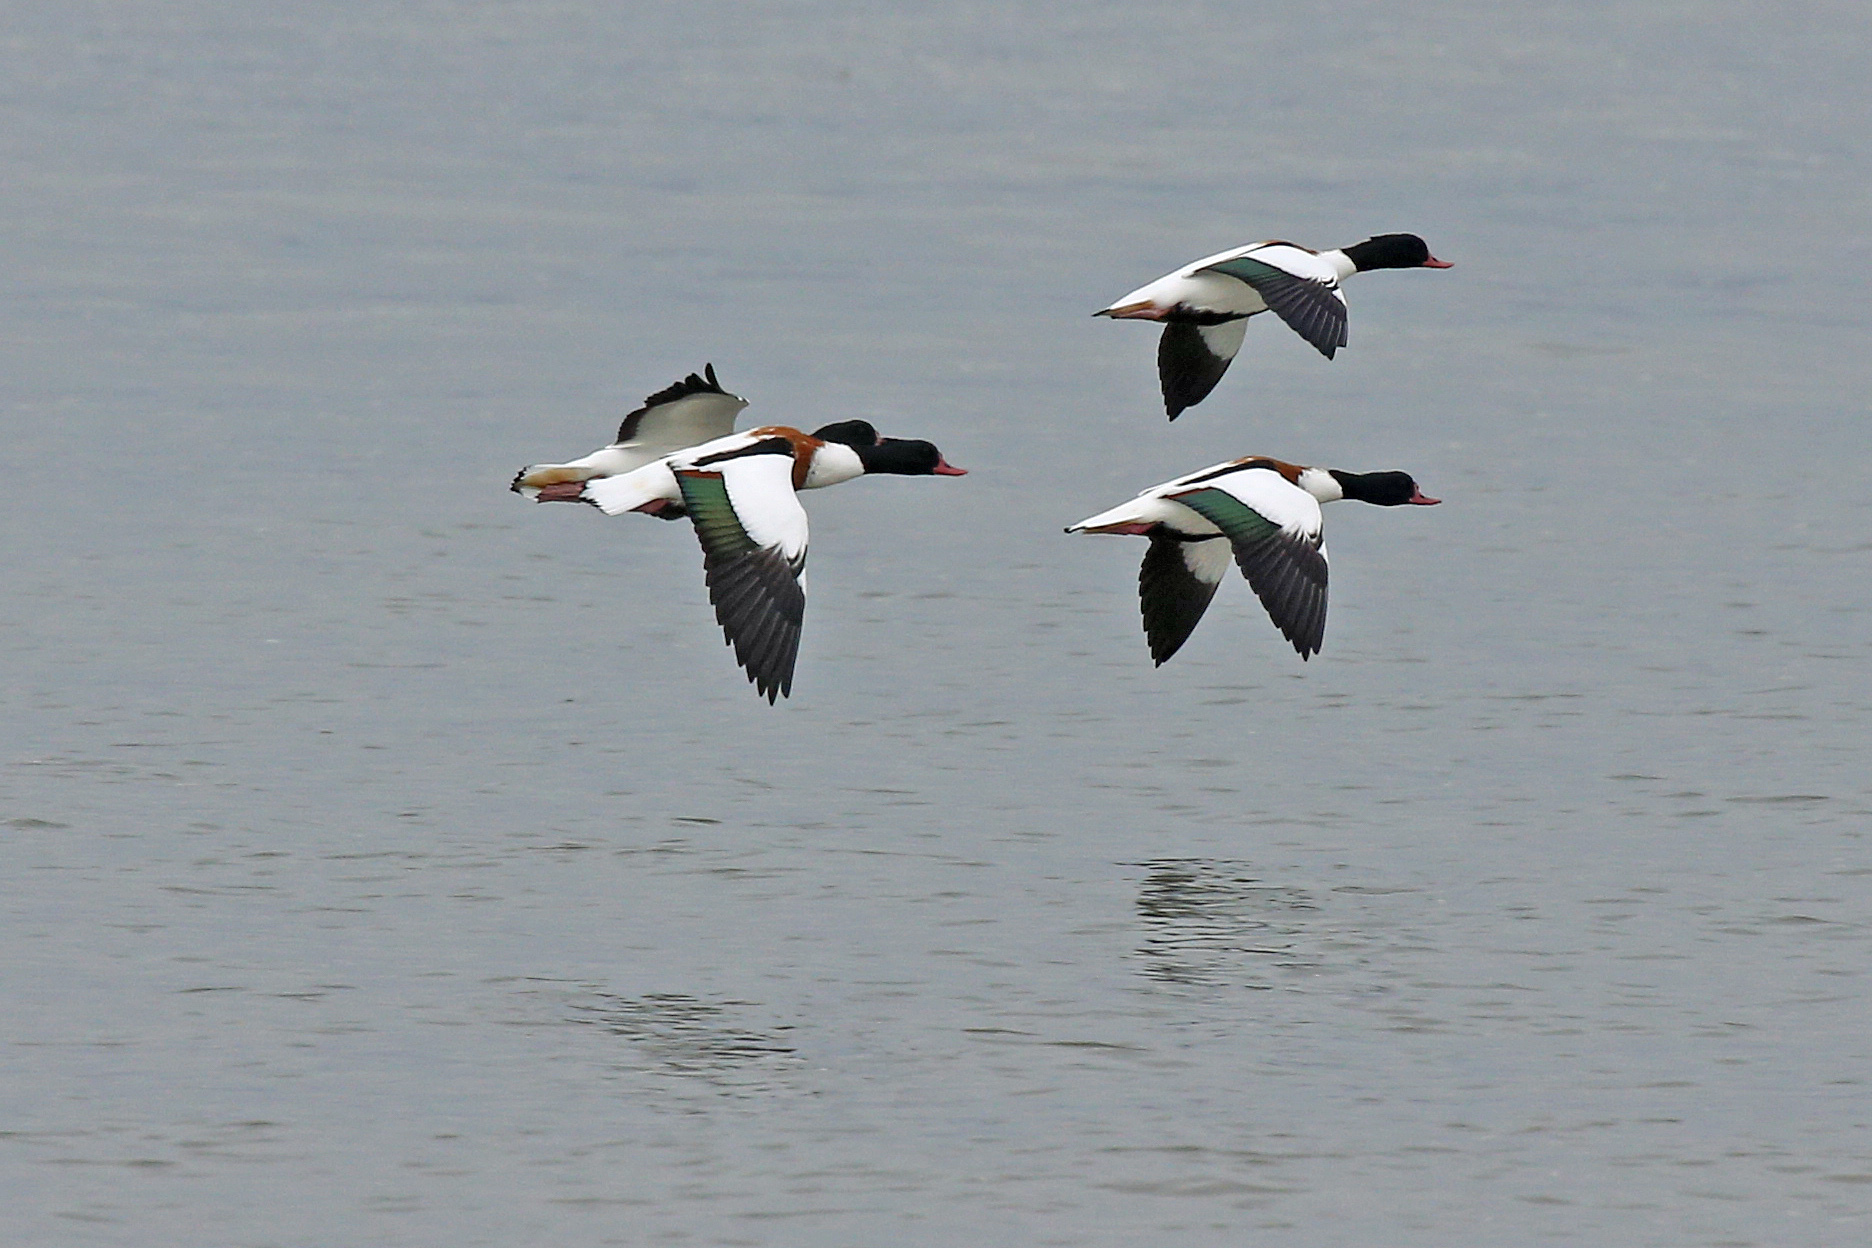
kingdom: Animalia
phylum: Chordata
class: Aves
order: Anseriformes
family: Anatidae
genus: Tadorna
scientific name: Tadorna tadorna
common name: Common shelduck
